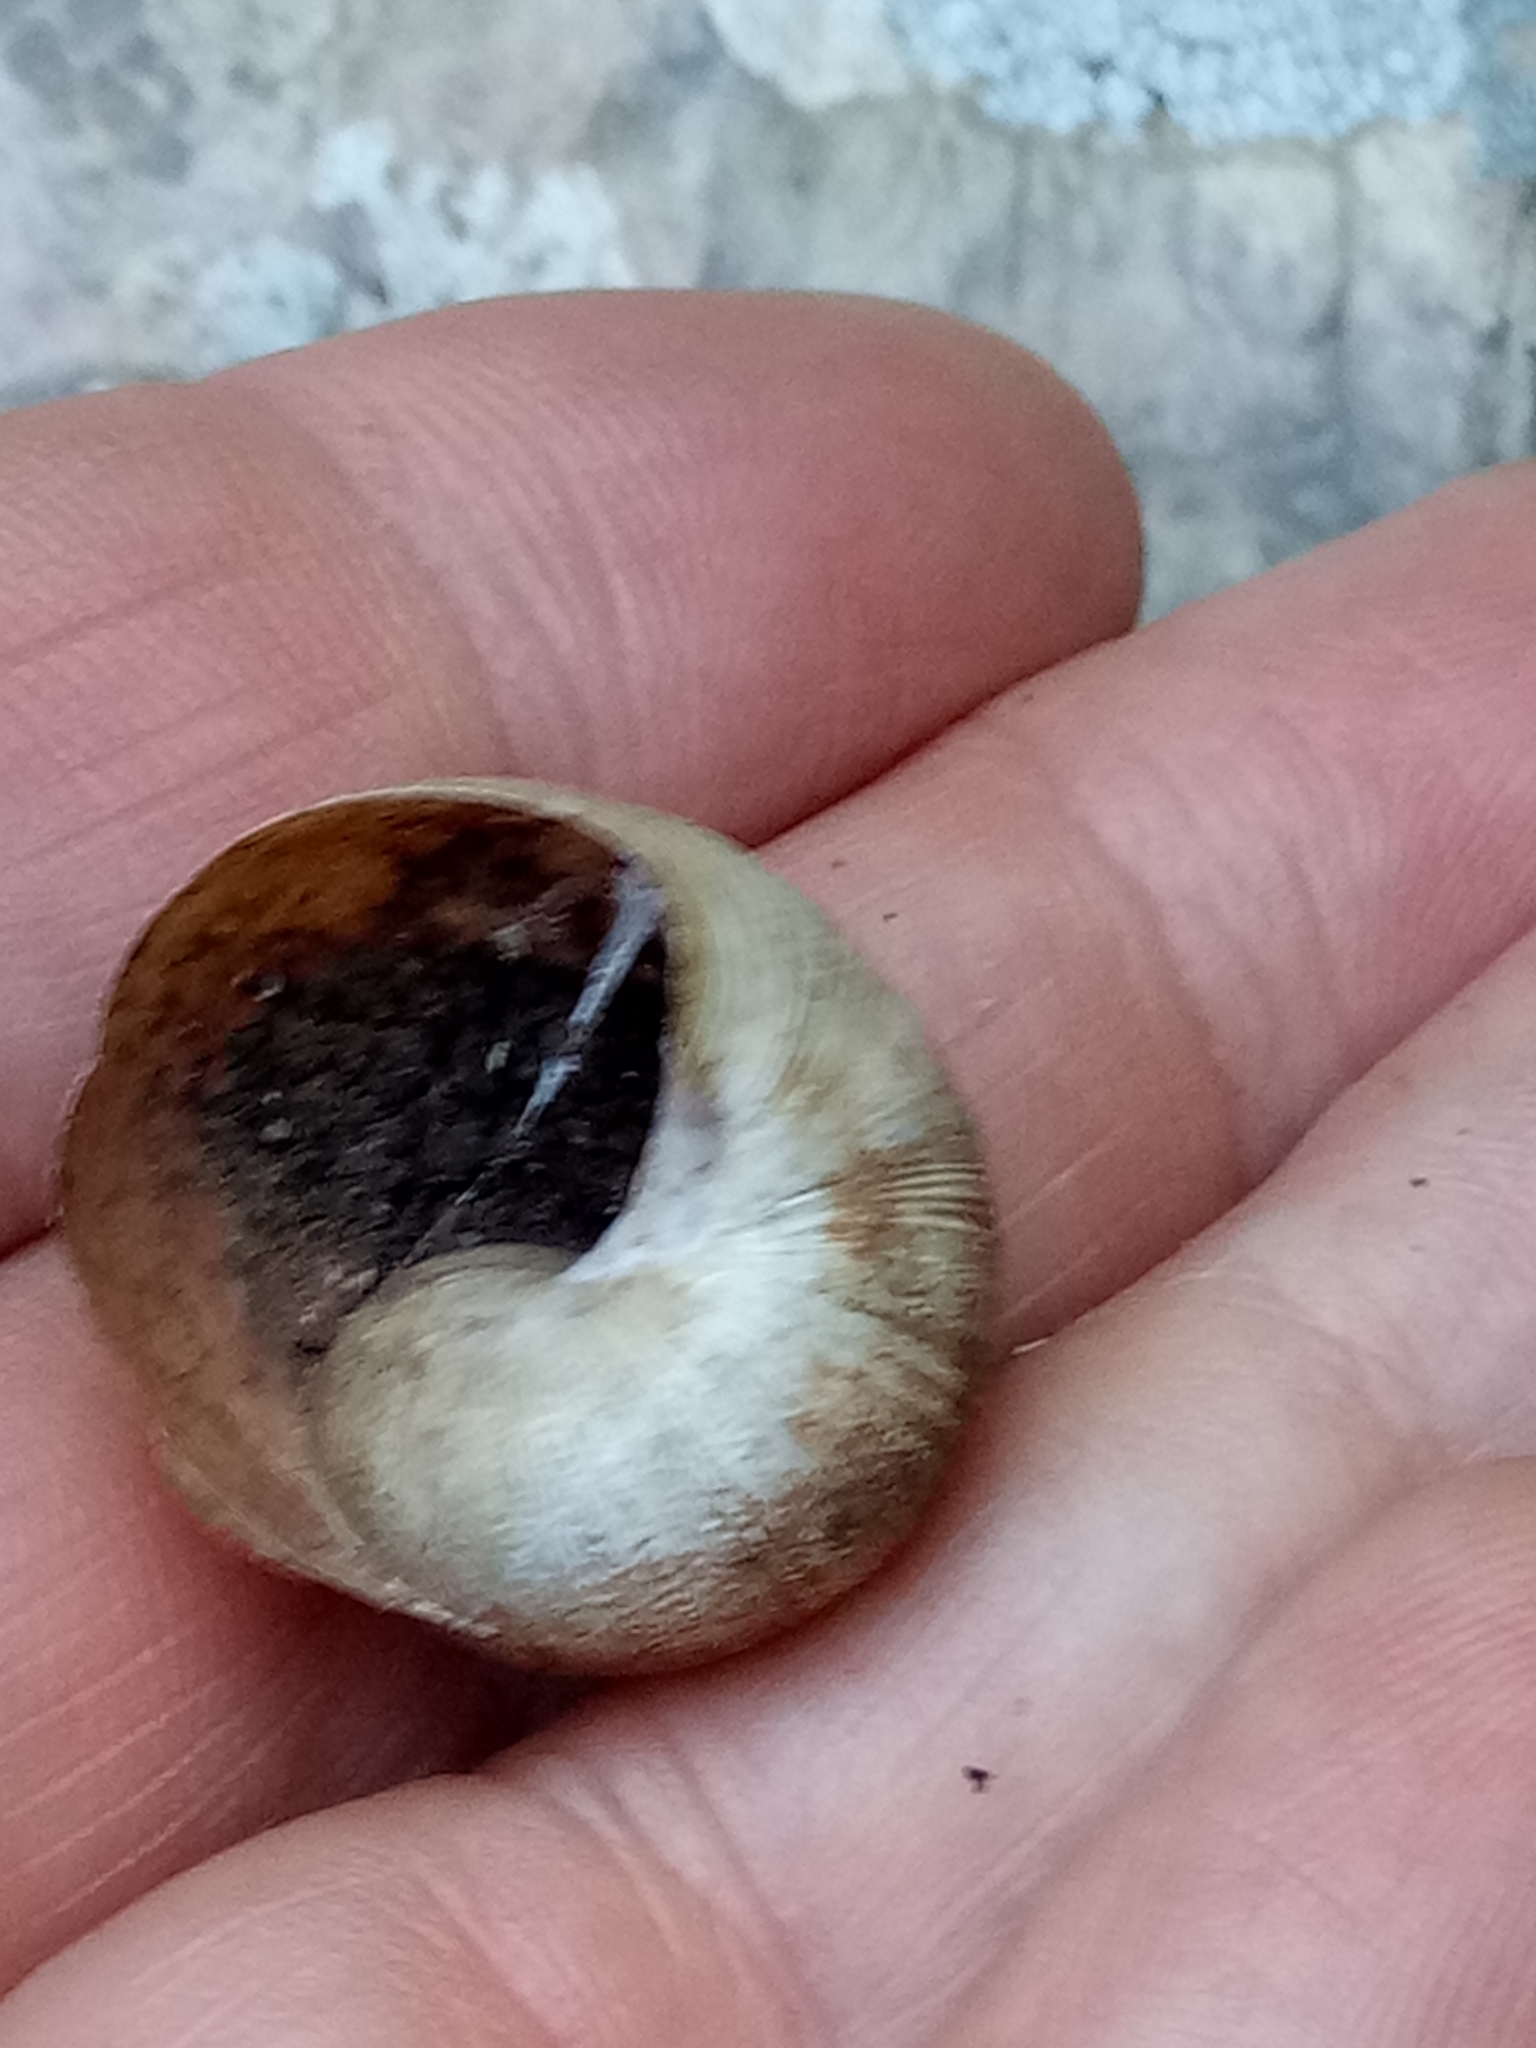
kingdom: Animalia
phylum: Mollusca
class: Gastropoda
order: Stylommatophora
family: Helicidae
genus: Cornu
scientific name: Cornu aspersum
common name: Brown garden snail
